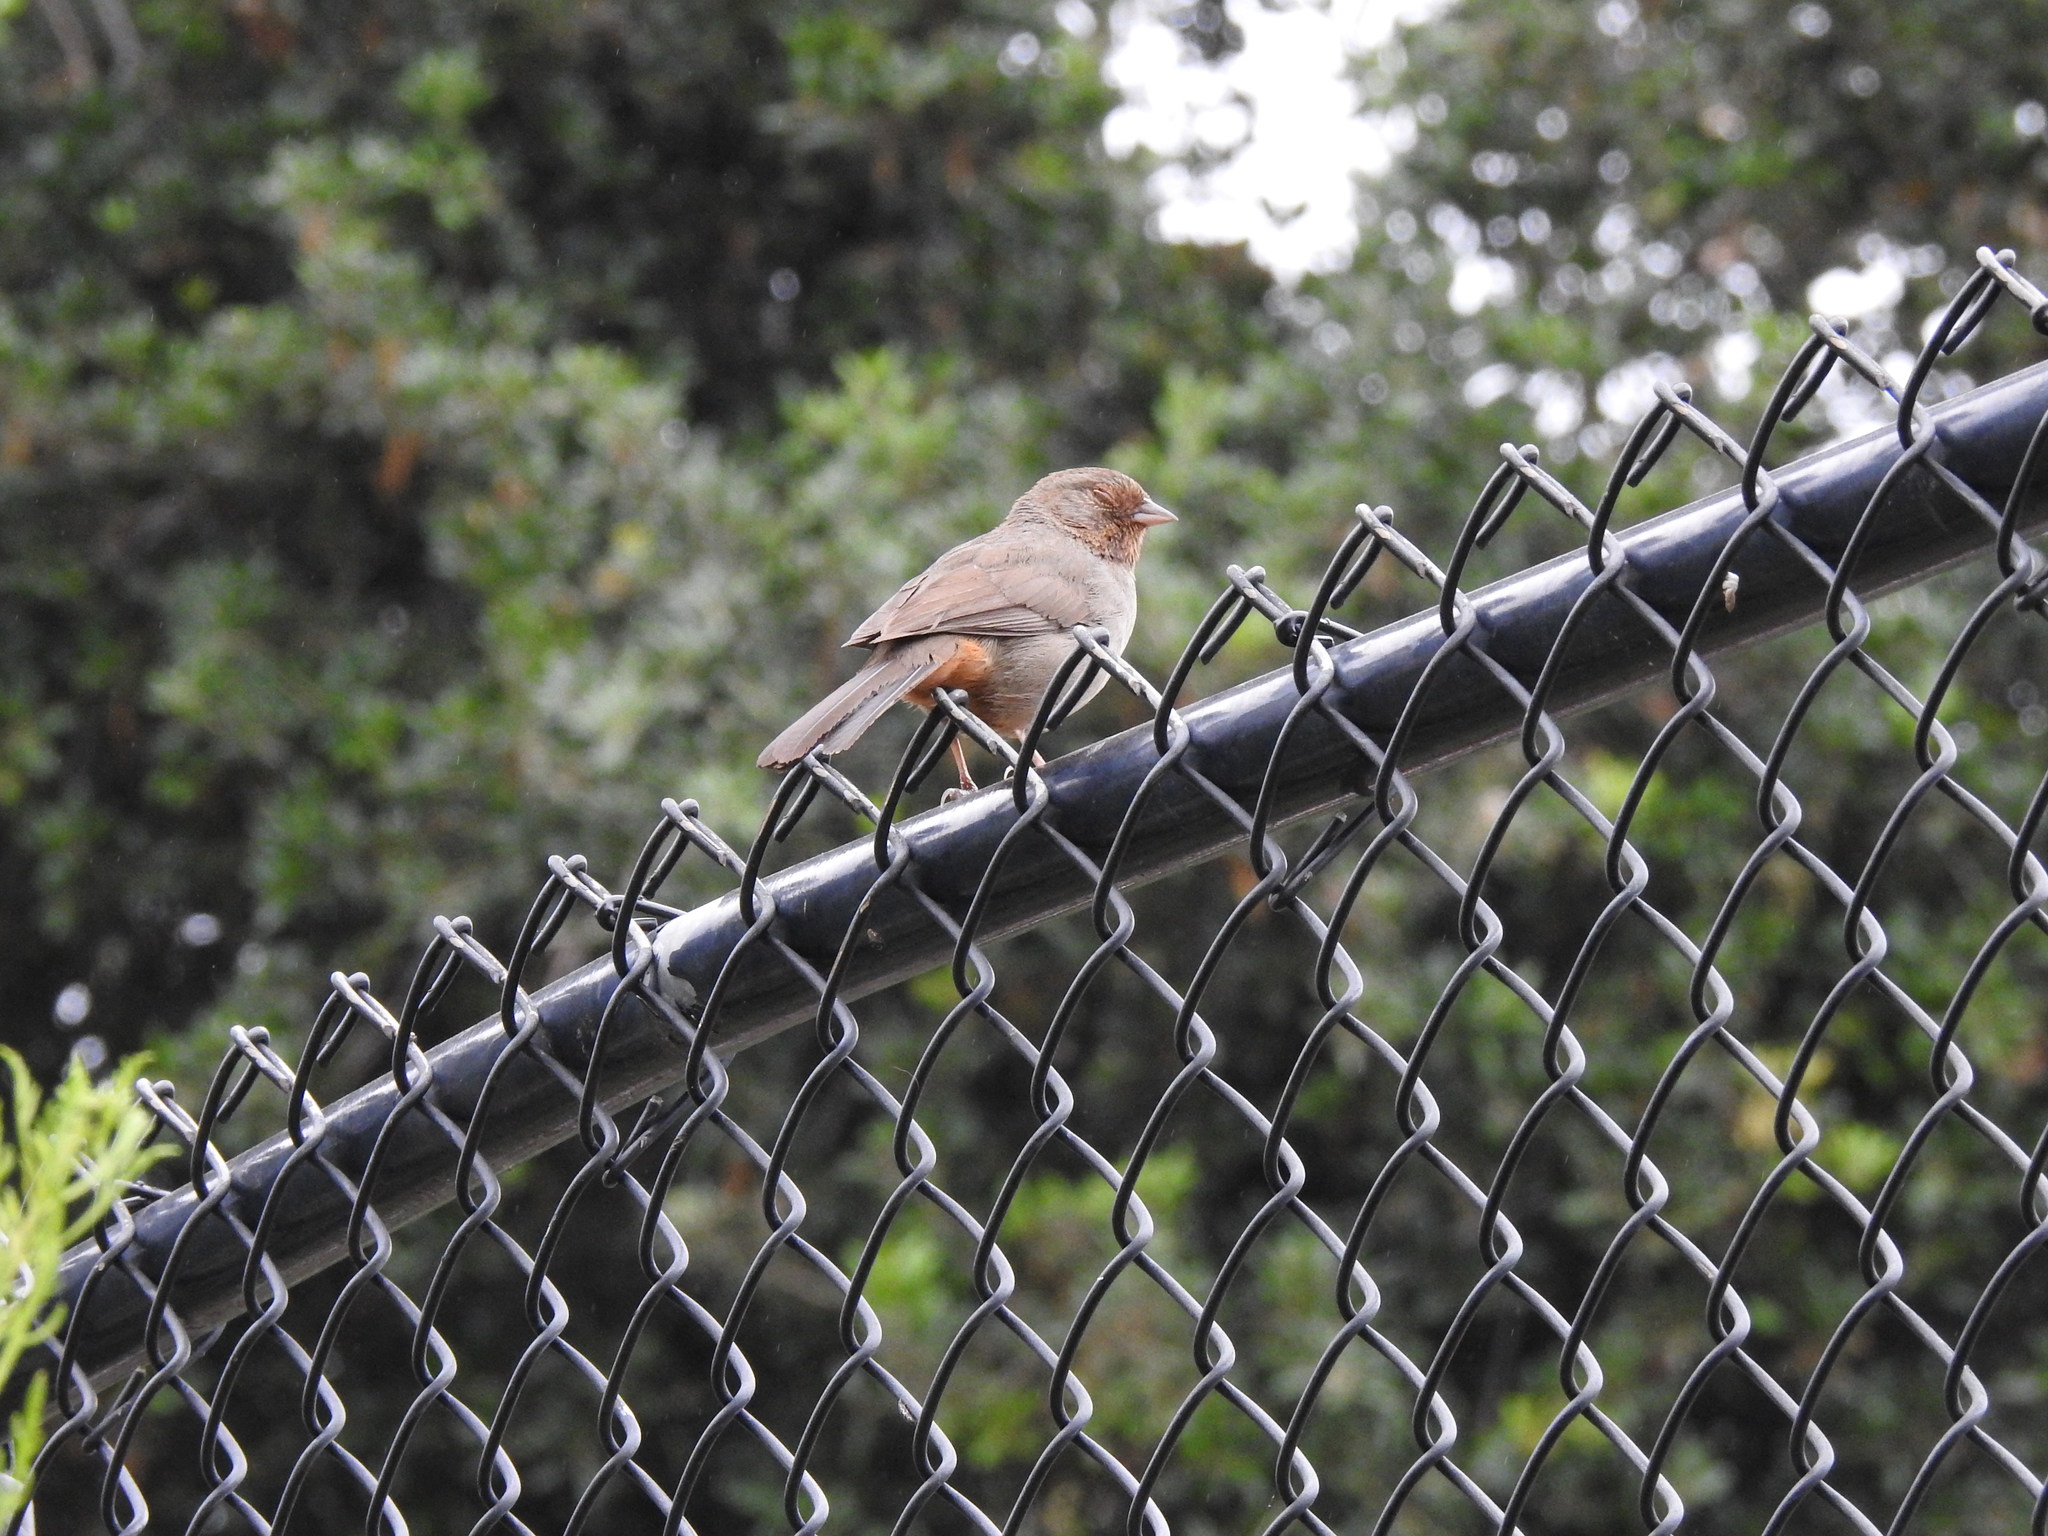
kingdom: Animalia
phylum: Chordata
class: Aves
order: Passeriformes
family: Passerellidae
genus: Melozone
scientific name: Melozone crissalis
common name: California towhee
